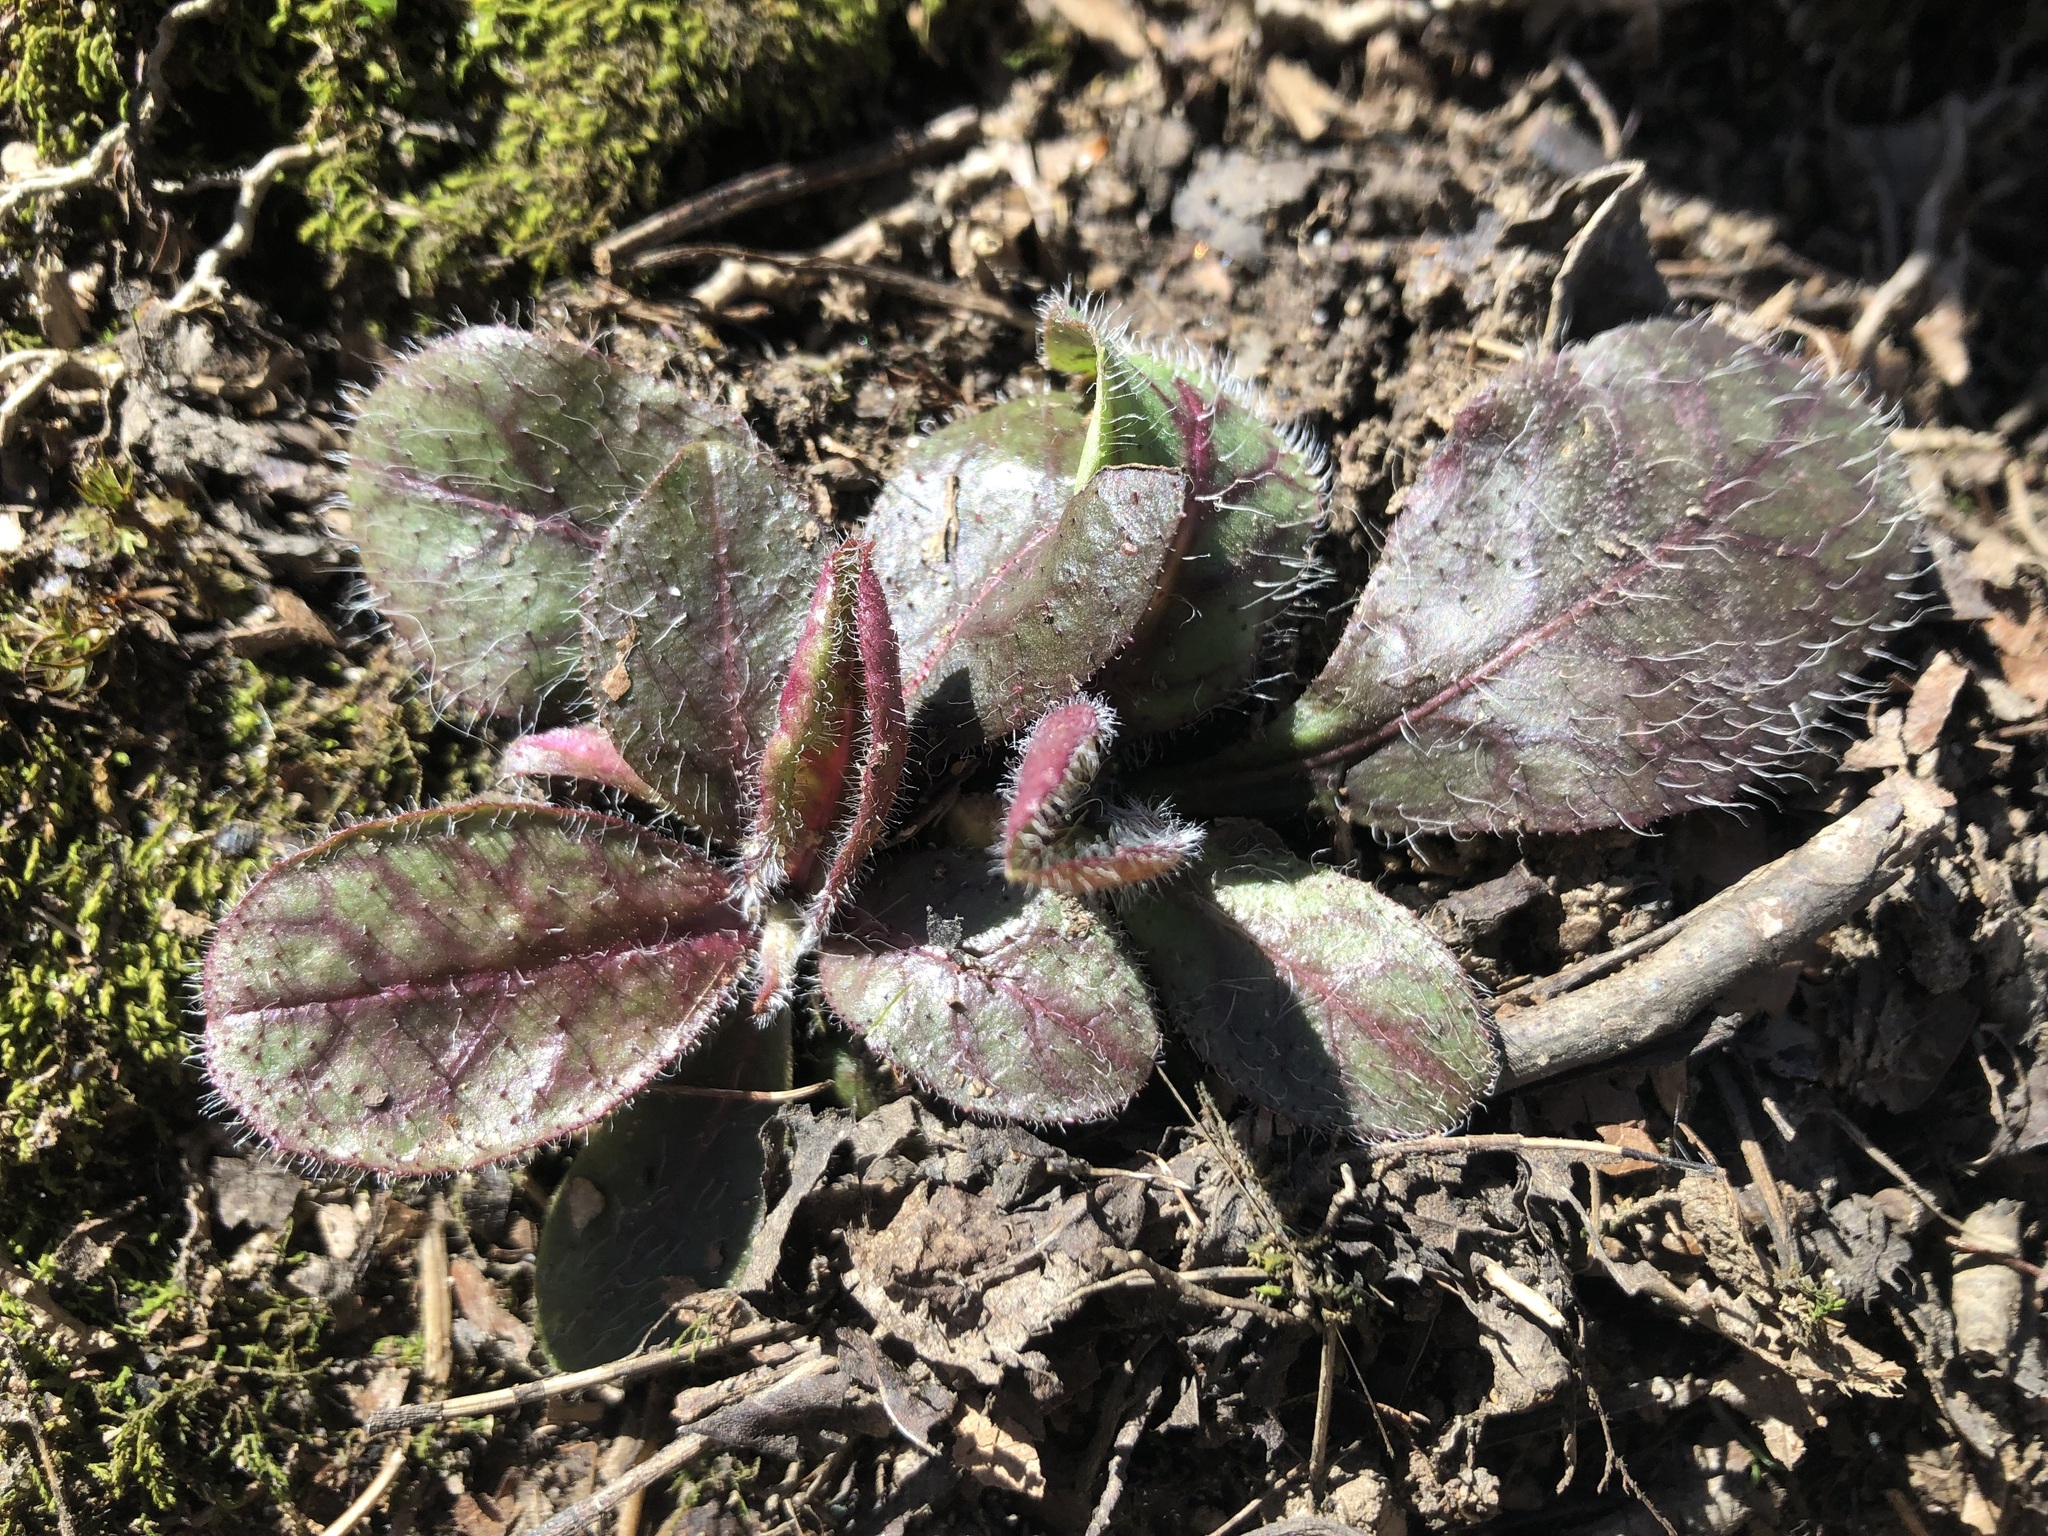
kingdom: Plantae
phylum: Tracheophyta
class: Magnoliopsida
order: Asterales
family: Asteraceae
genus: Hieracium
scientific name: Hieracium venosum
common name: Rattlesnake hawkweed
